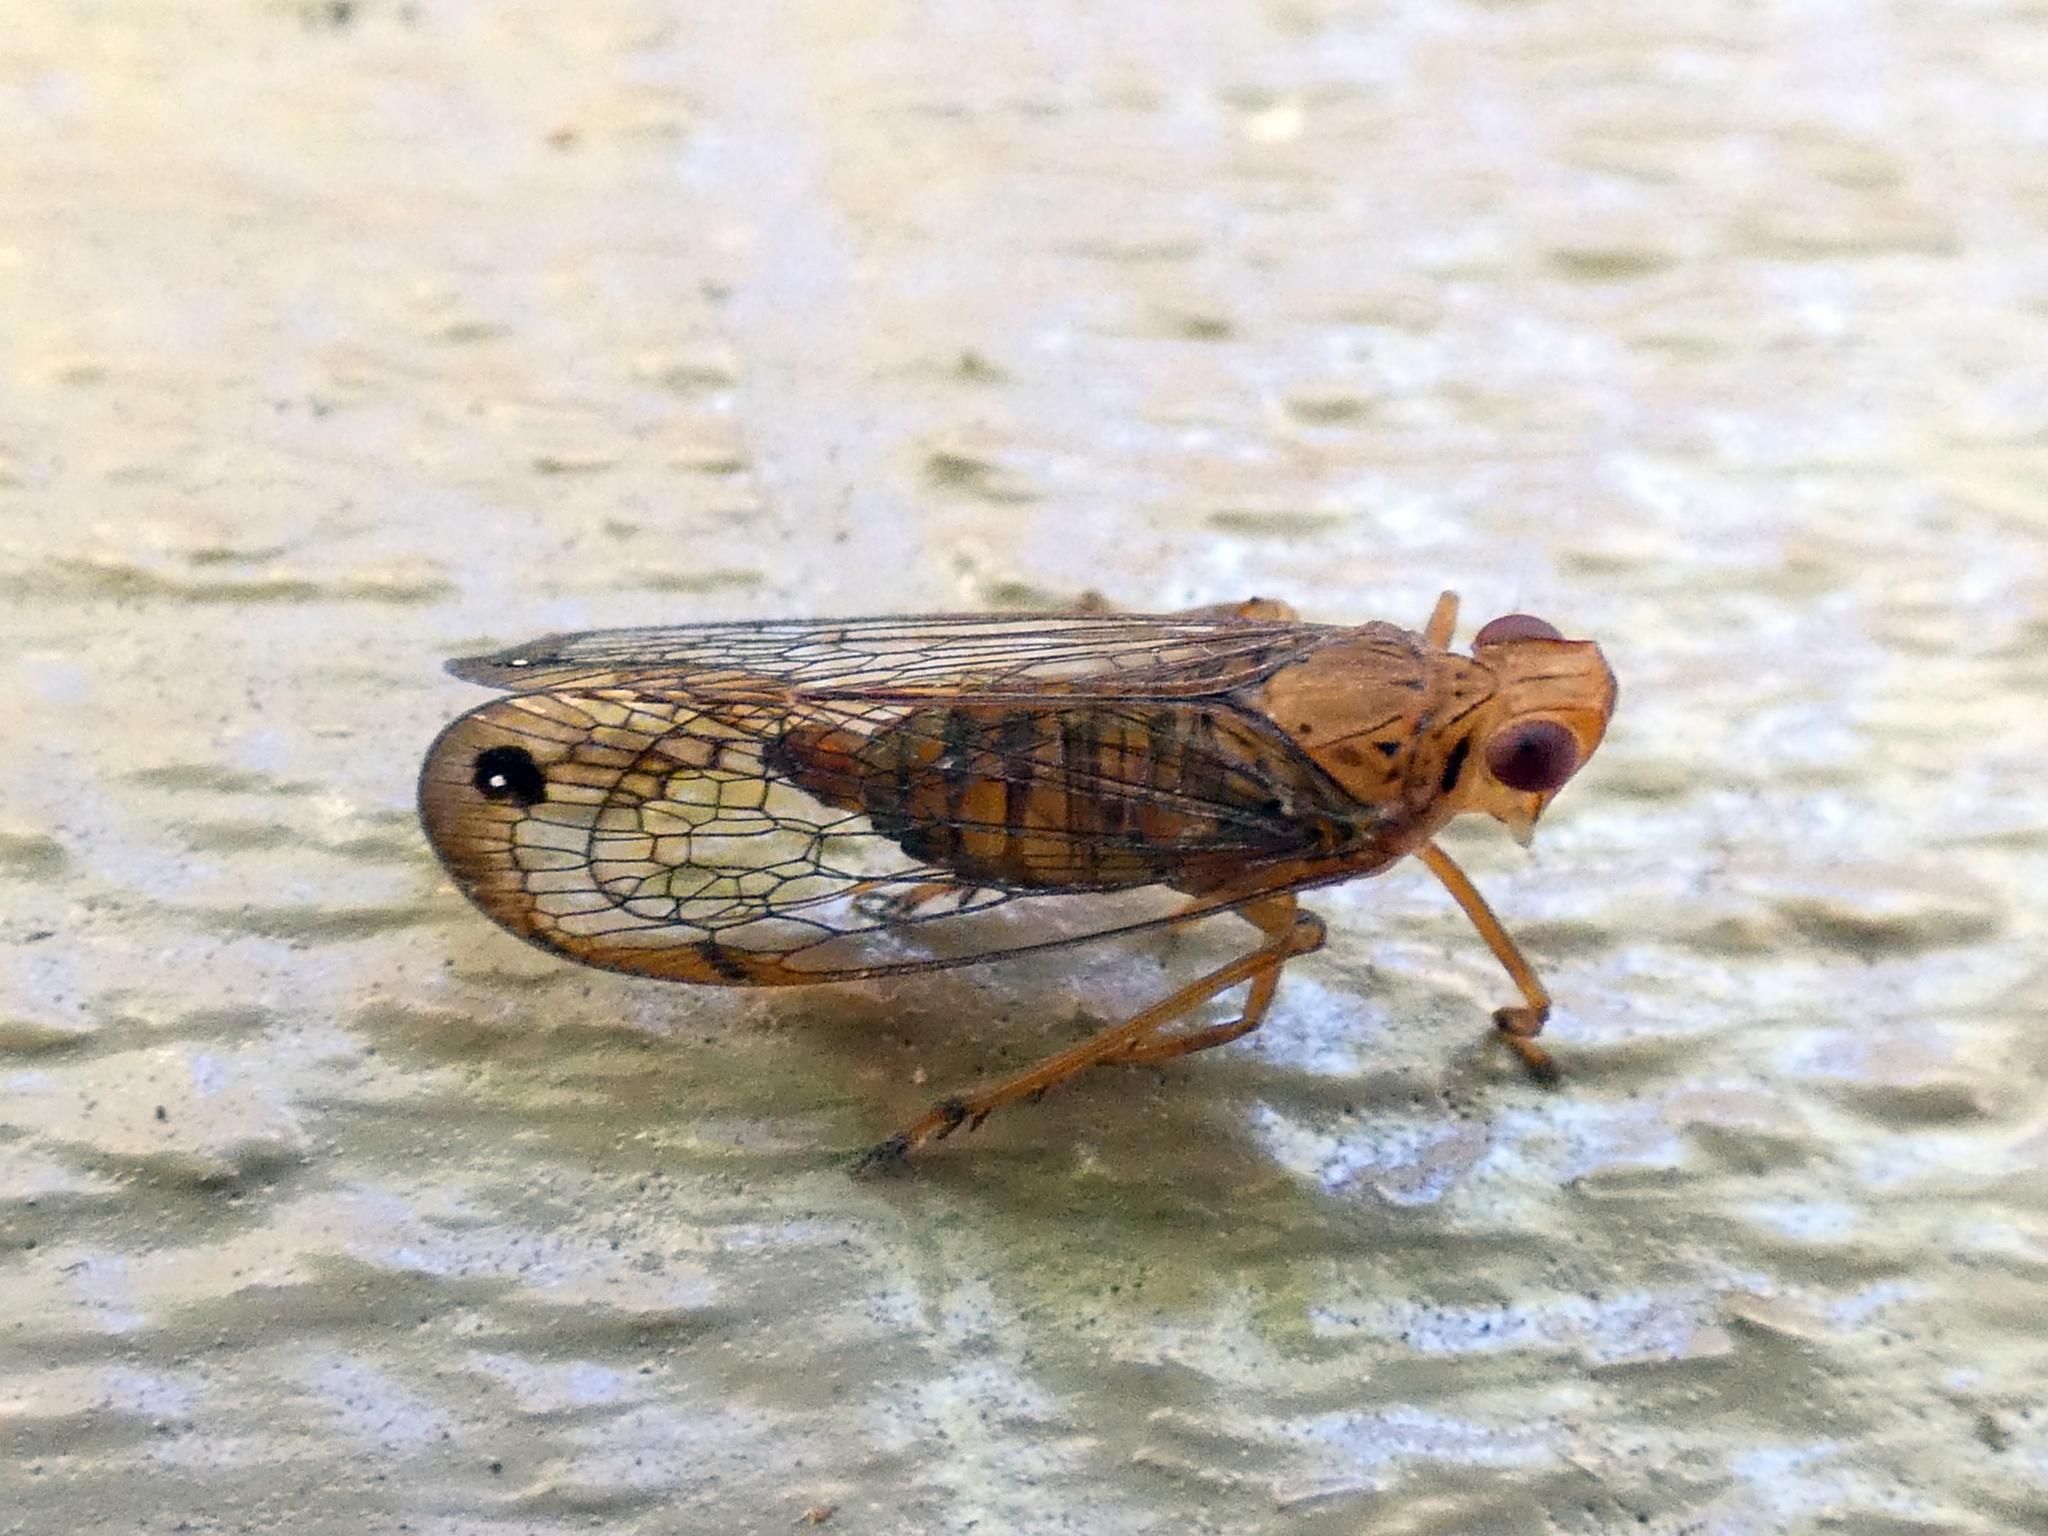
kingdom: Animalia
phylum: Arthropoda
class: Insecta
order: Hemiptera
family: Lophopidae
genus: Magia
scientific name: Magia stuarti
